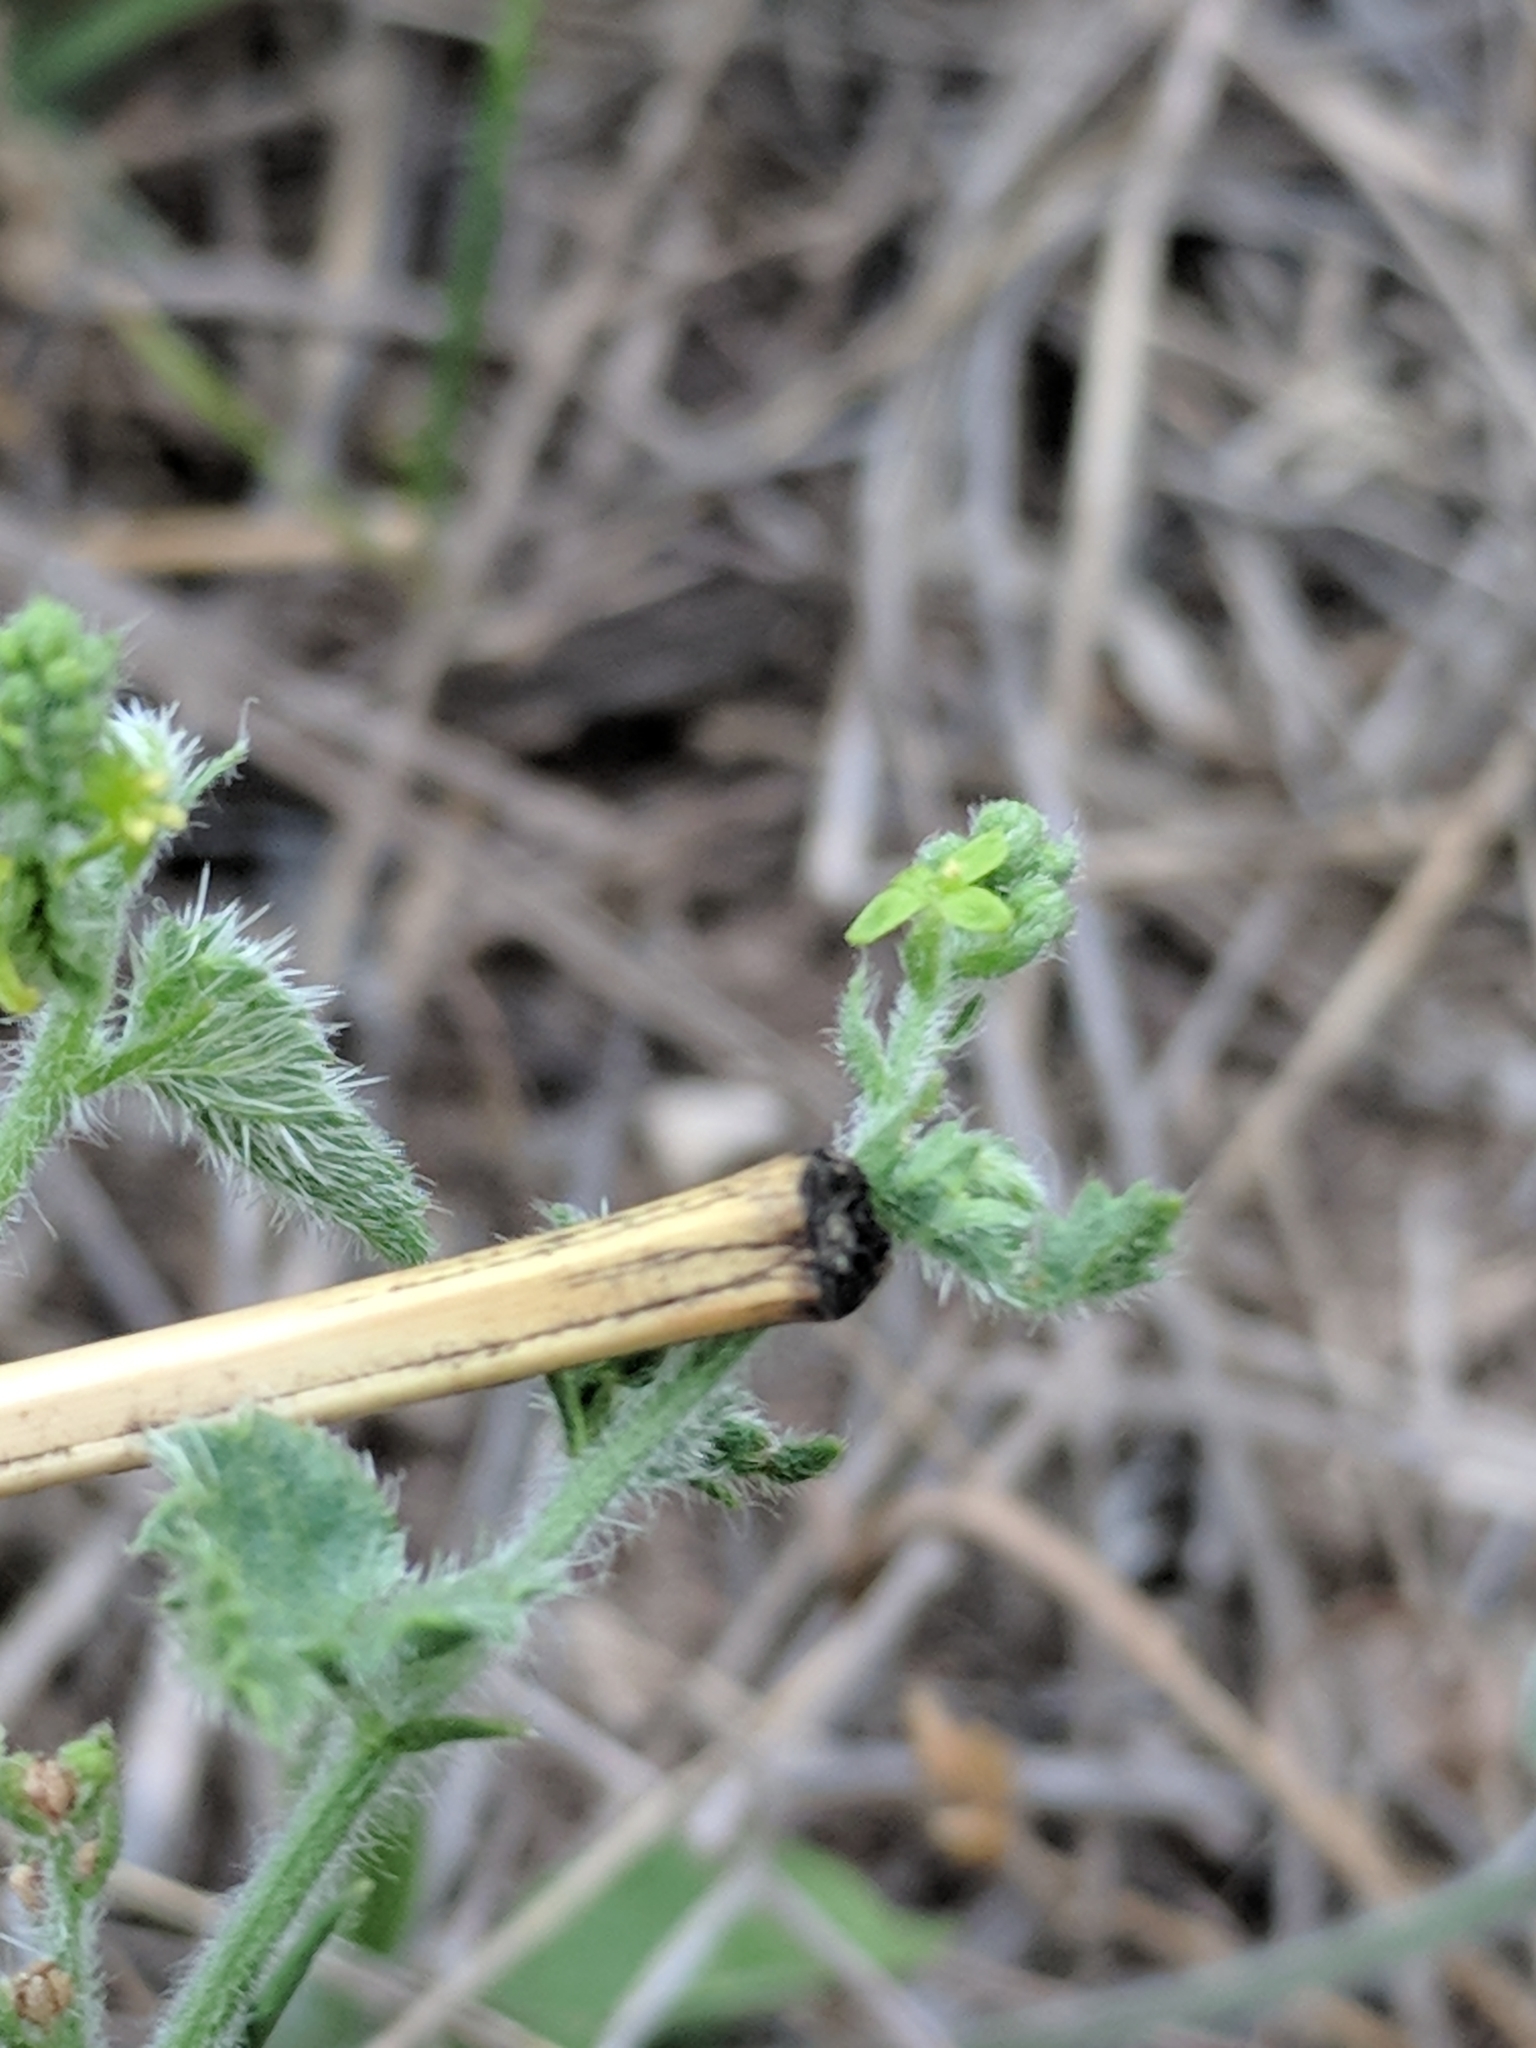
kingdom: Plantae
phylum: Tracheophyta
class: Magnoliopsida
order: Malpighiales
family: Euphorbiaceae
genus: Tragia
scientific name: Tragia amblyodonta
